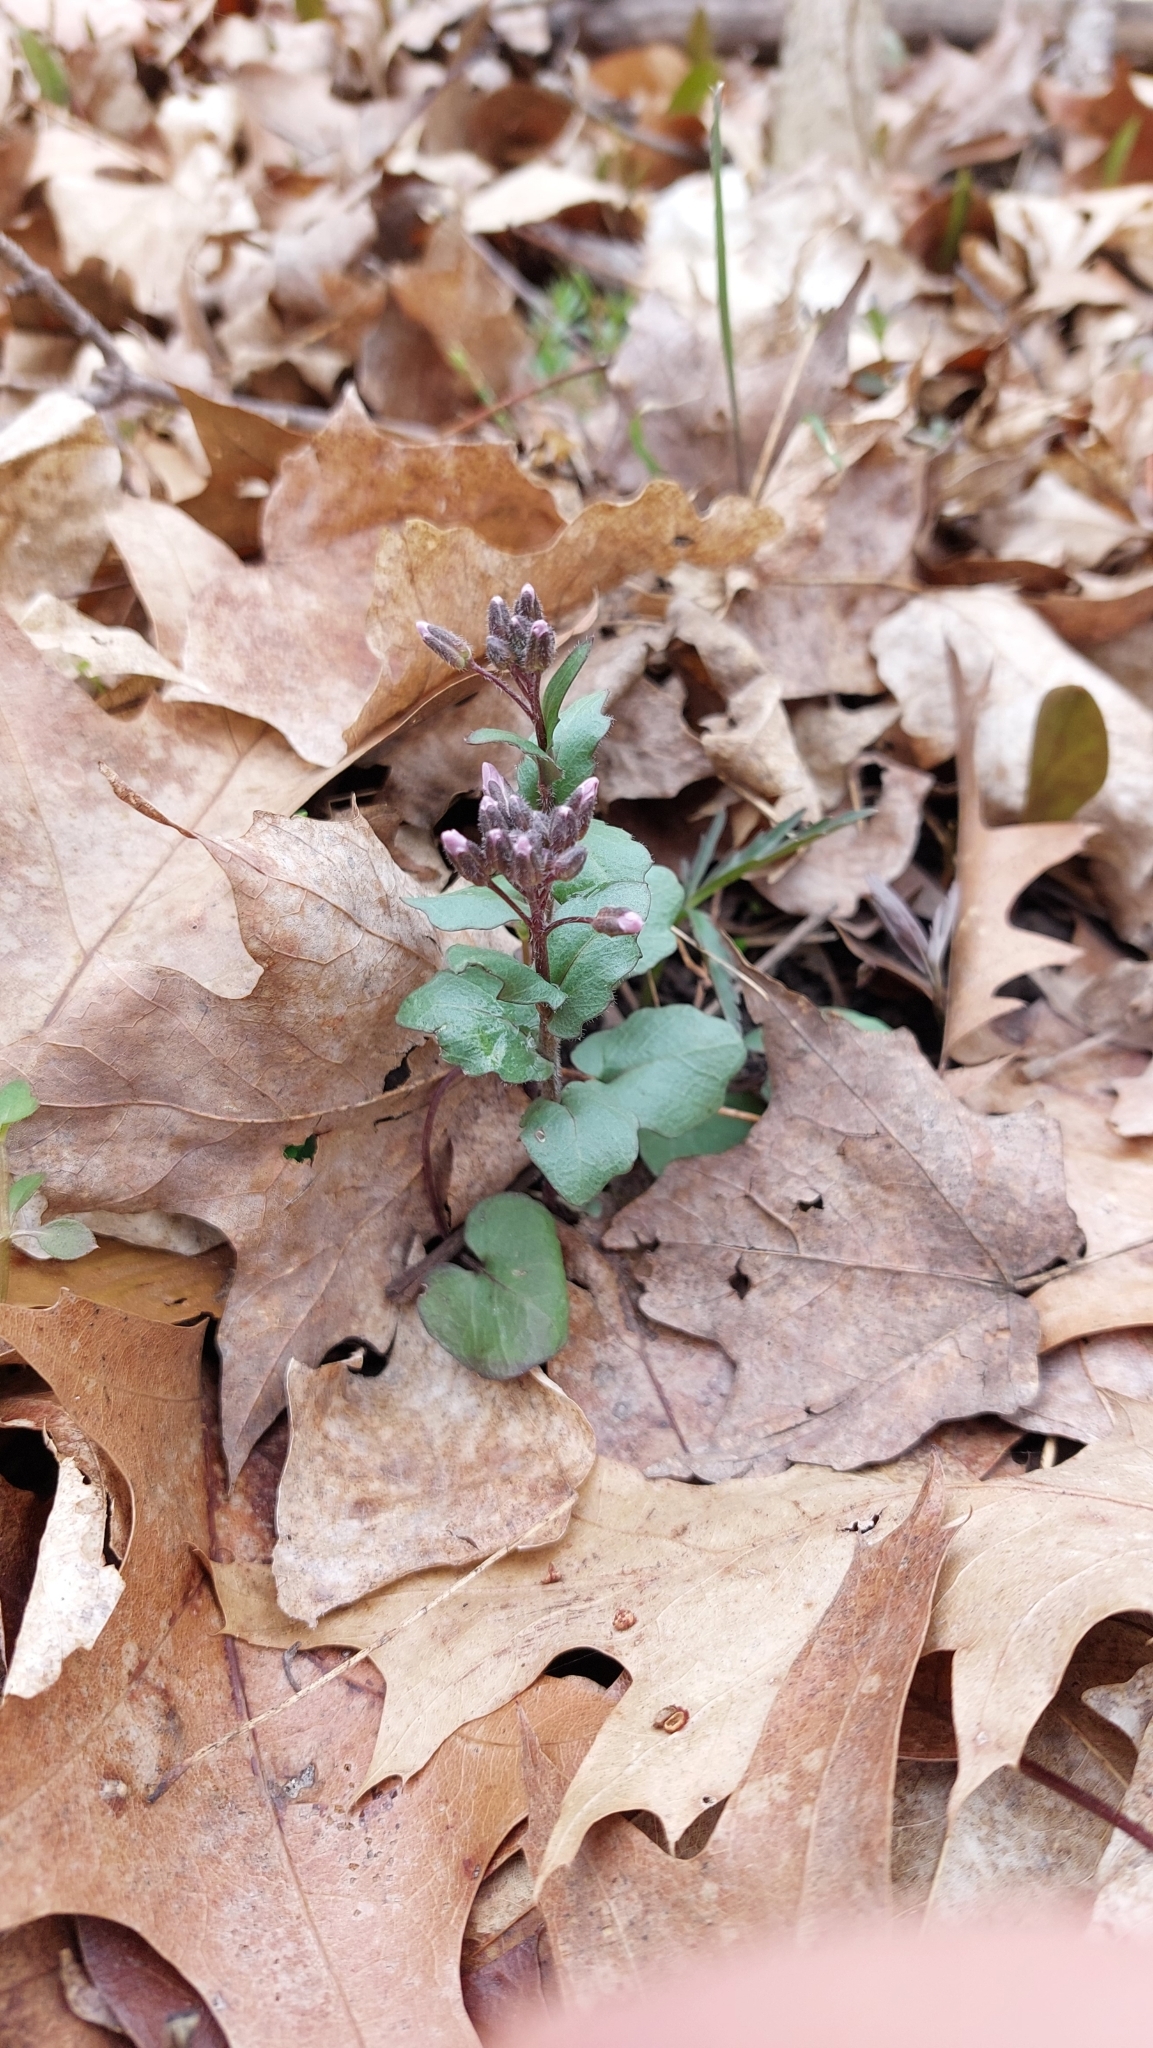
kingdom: Plantae
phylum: Tracheophyta
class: Magnoliopsida
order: Brassicales
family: Brassicaceae
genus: Cardamine
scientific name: Cardamine douglassii
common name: Purple cress
